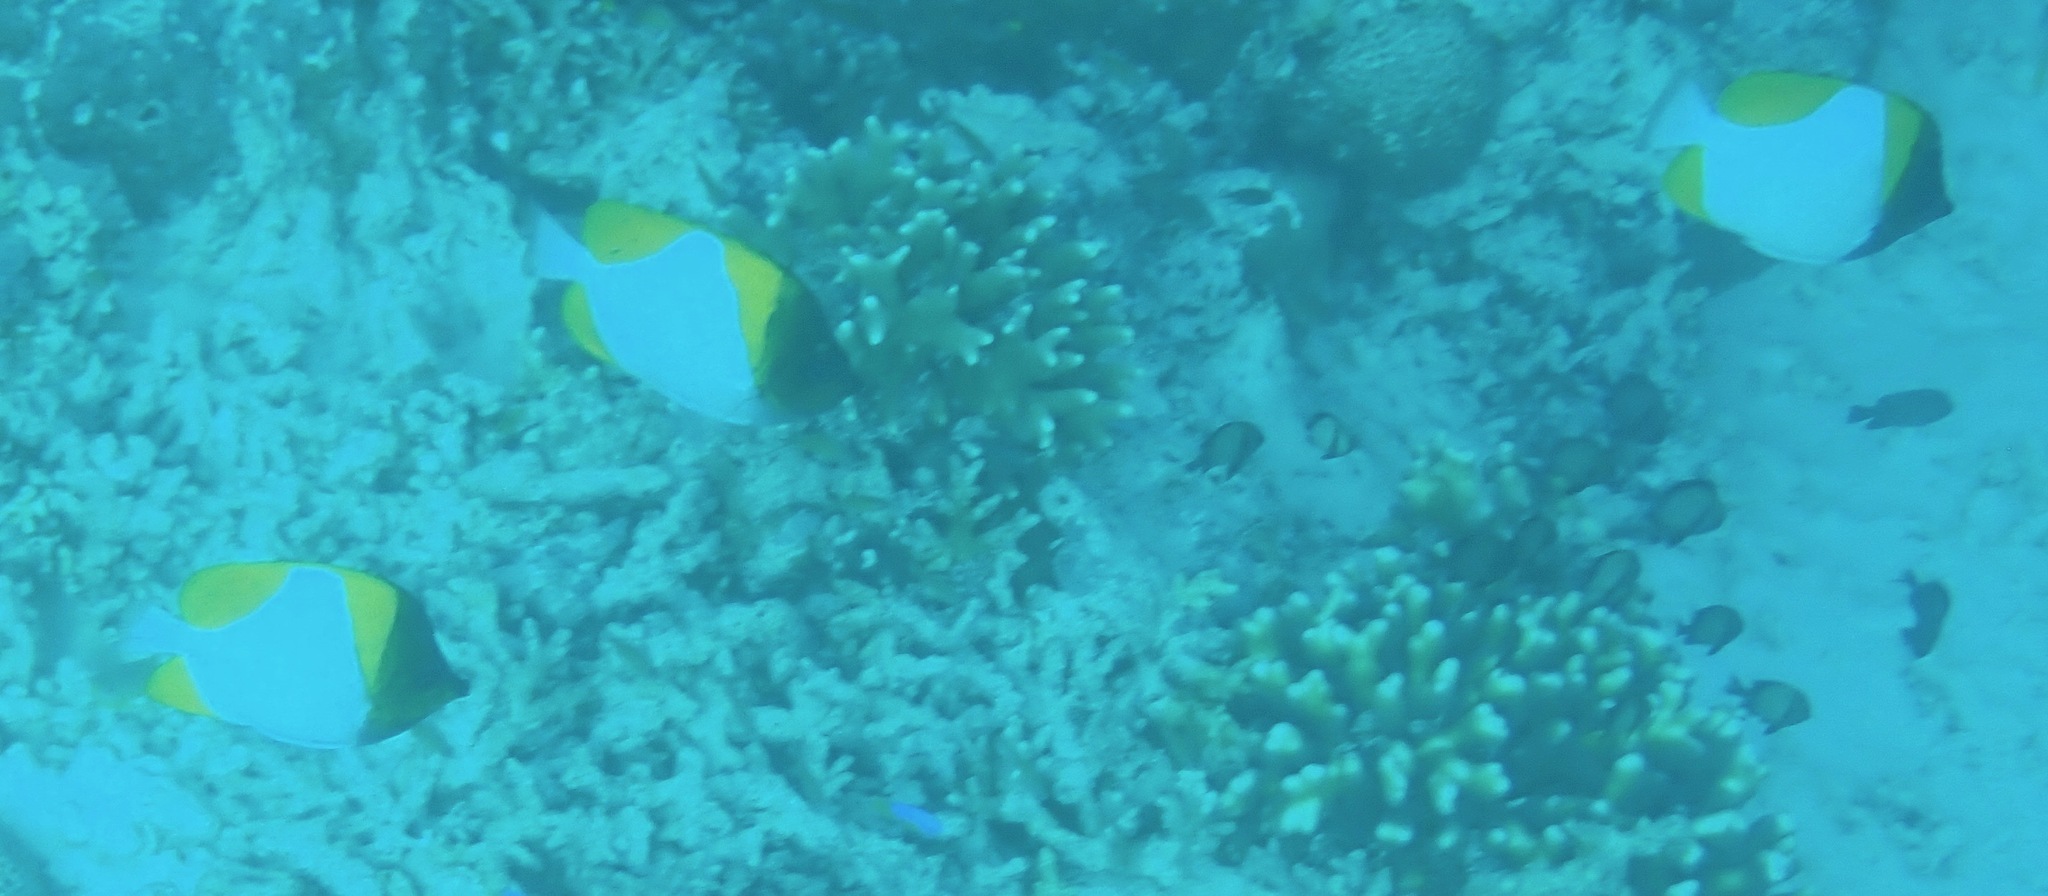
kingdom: Animalia
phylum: Chordata
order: Perciformes
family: Chaetodontidae
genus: Hemitaurichthys
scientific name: Hemitaurichthys polylepis
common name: Brushytoothed butterflyfish
